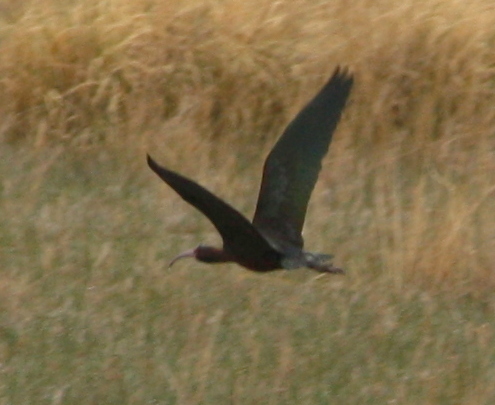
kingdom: Animalia
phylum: Chordata
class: Aves
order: Pelecaniformes
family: Threskiornithidae
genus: Plegadis
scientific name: Plegadis chihi
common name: White-faced ibis
